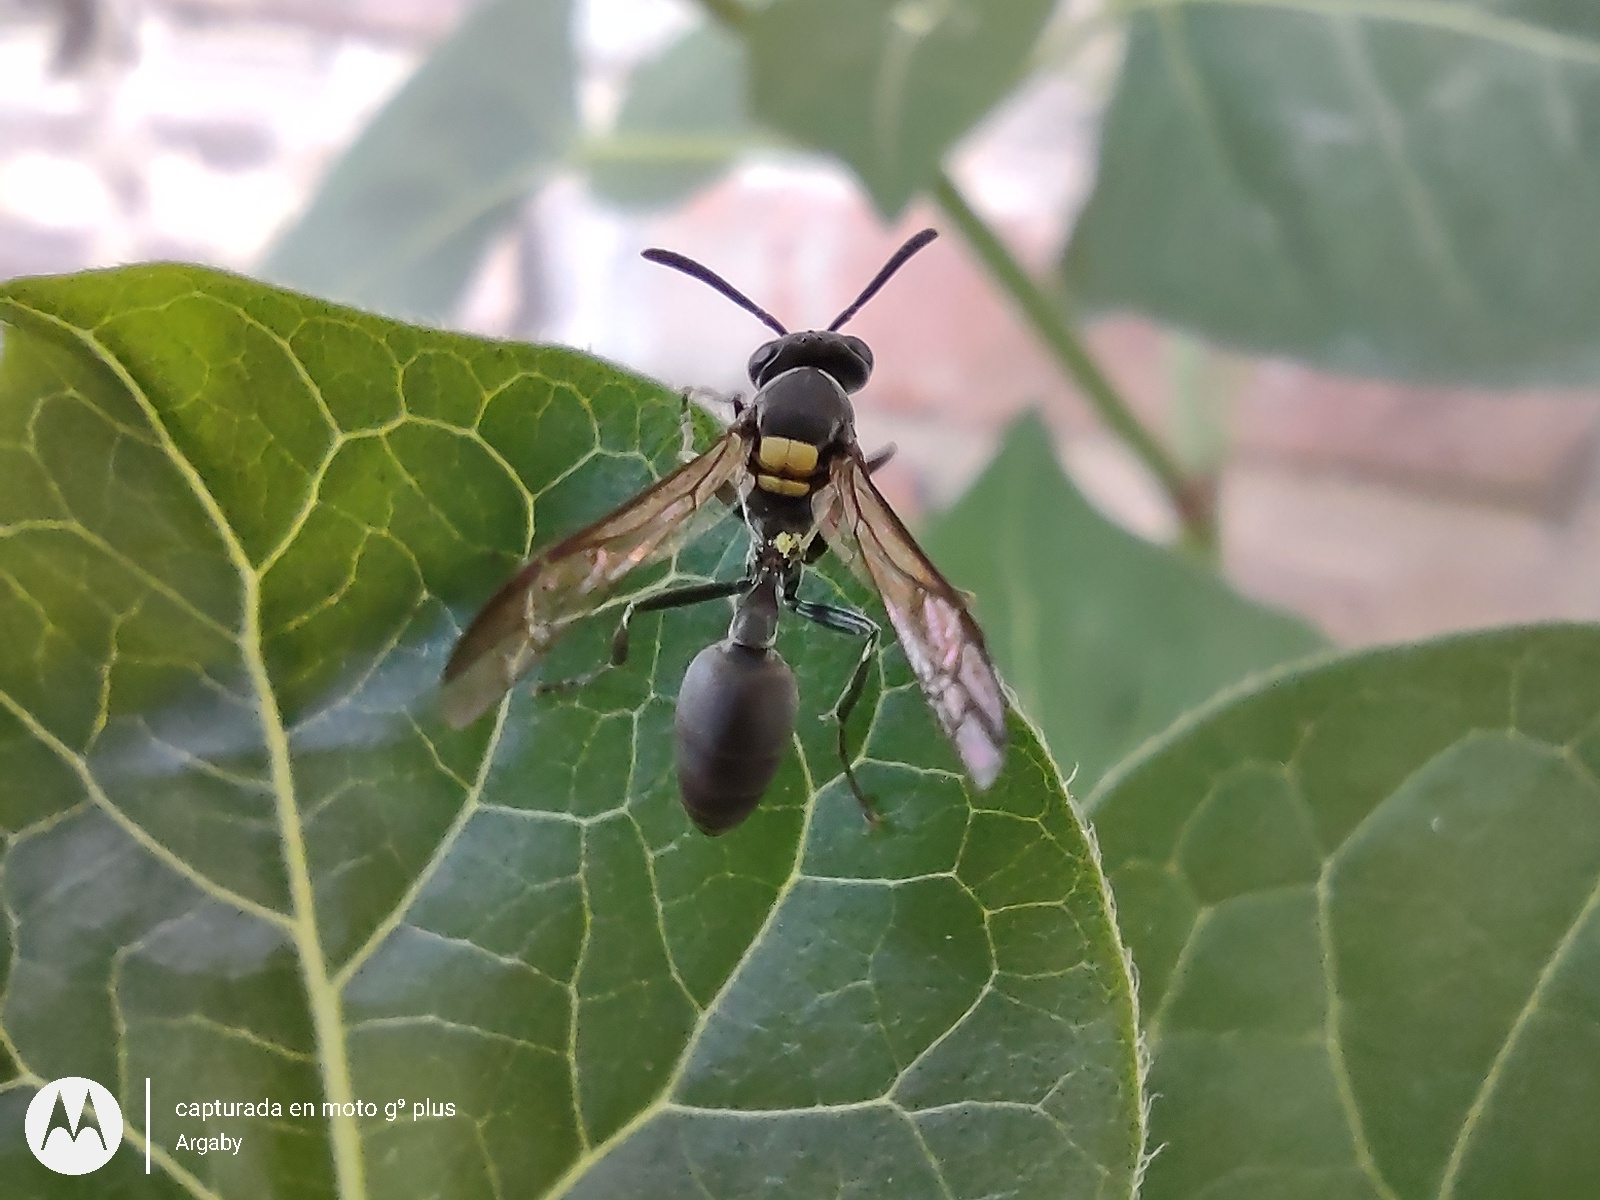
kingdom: Animalia
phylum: Arthropoda
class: Insecta
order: Hymenoptera
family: Eumenidae
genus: Polybia
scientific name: Polybia scutellaris
